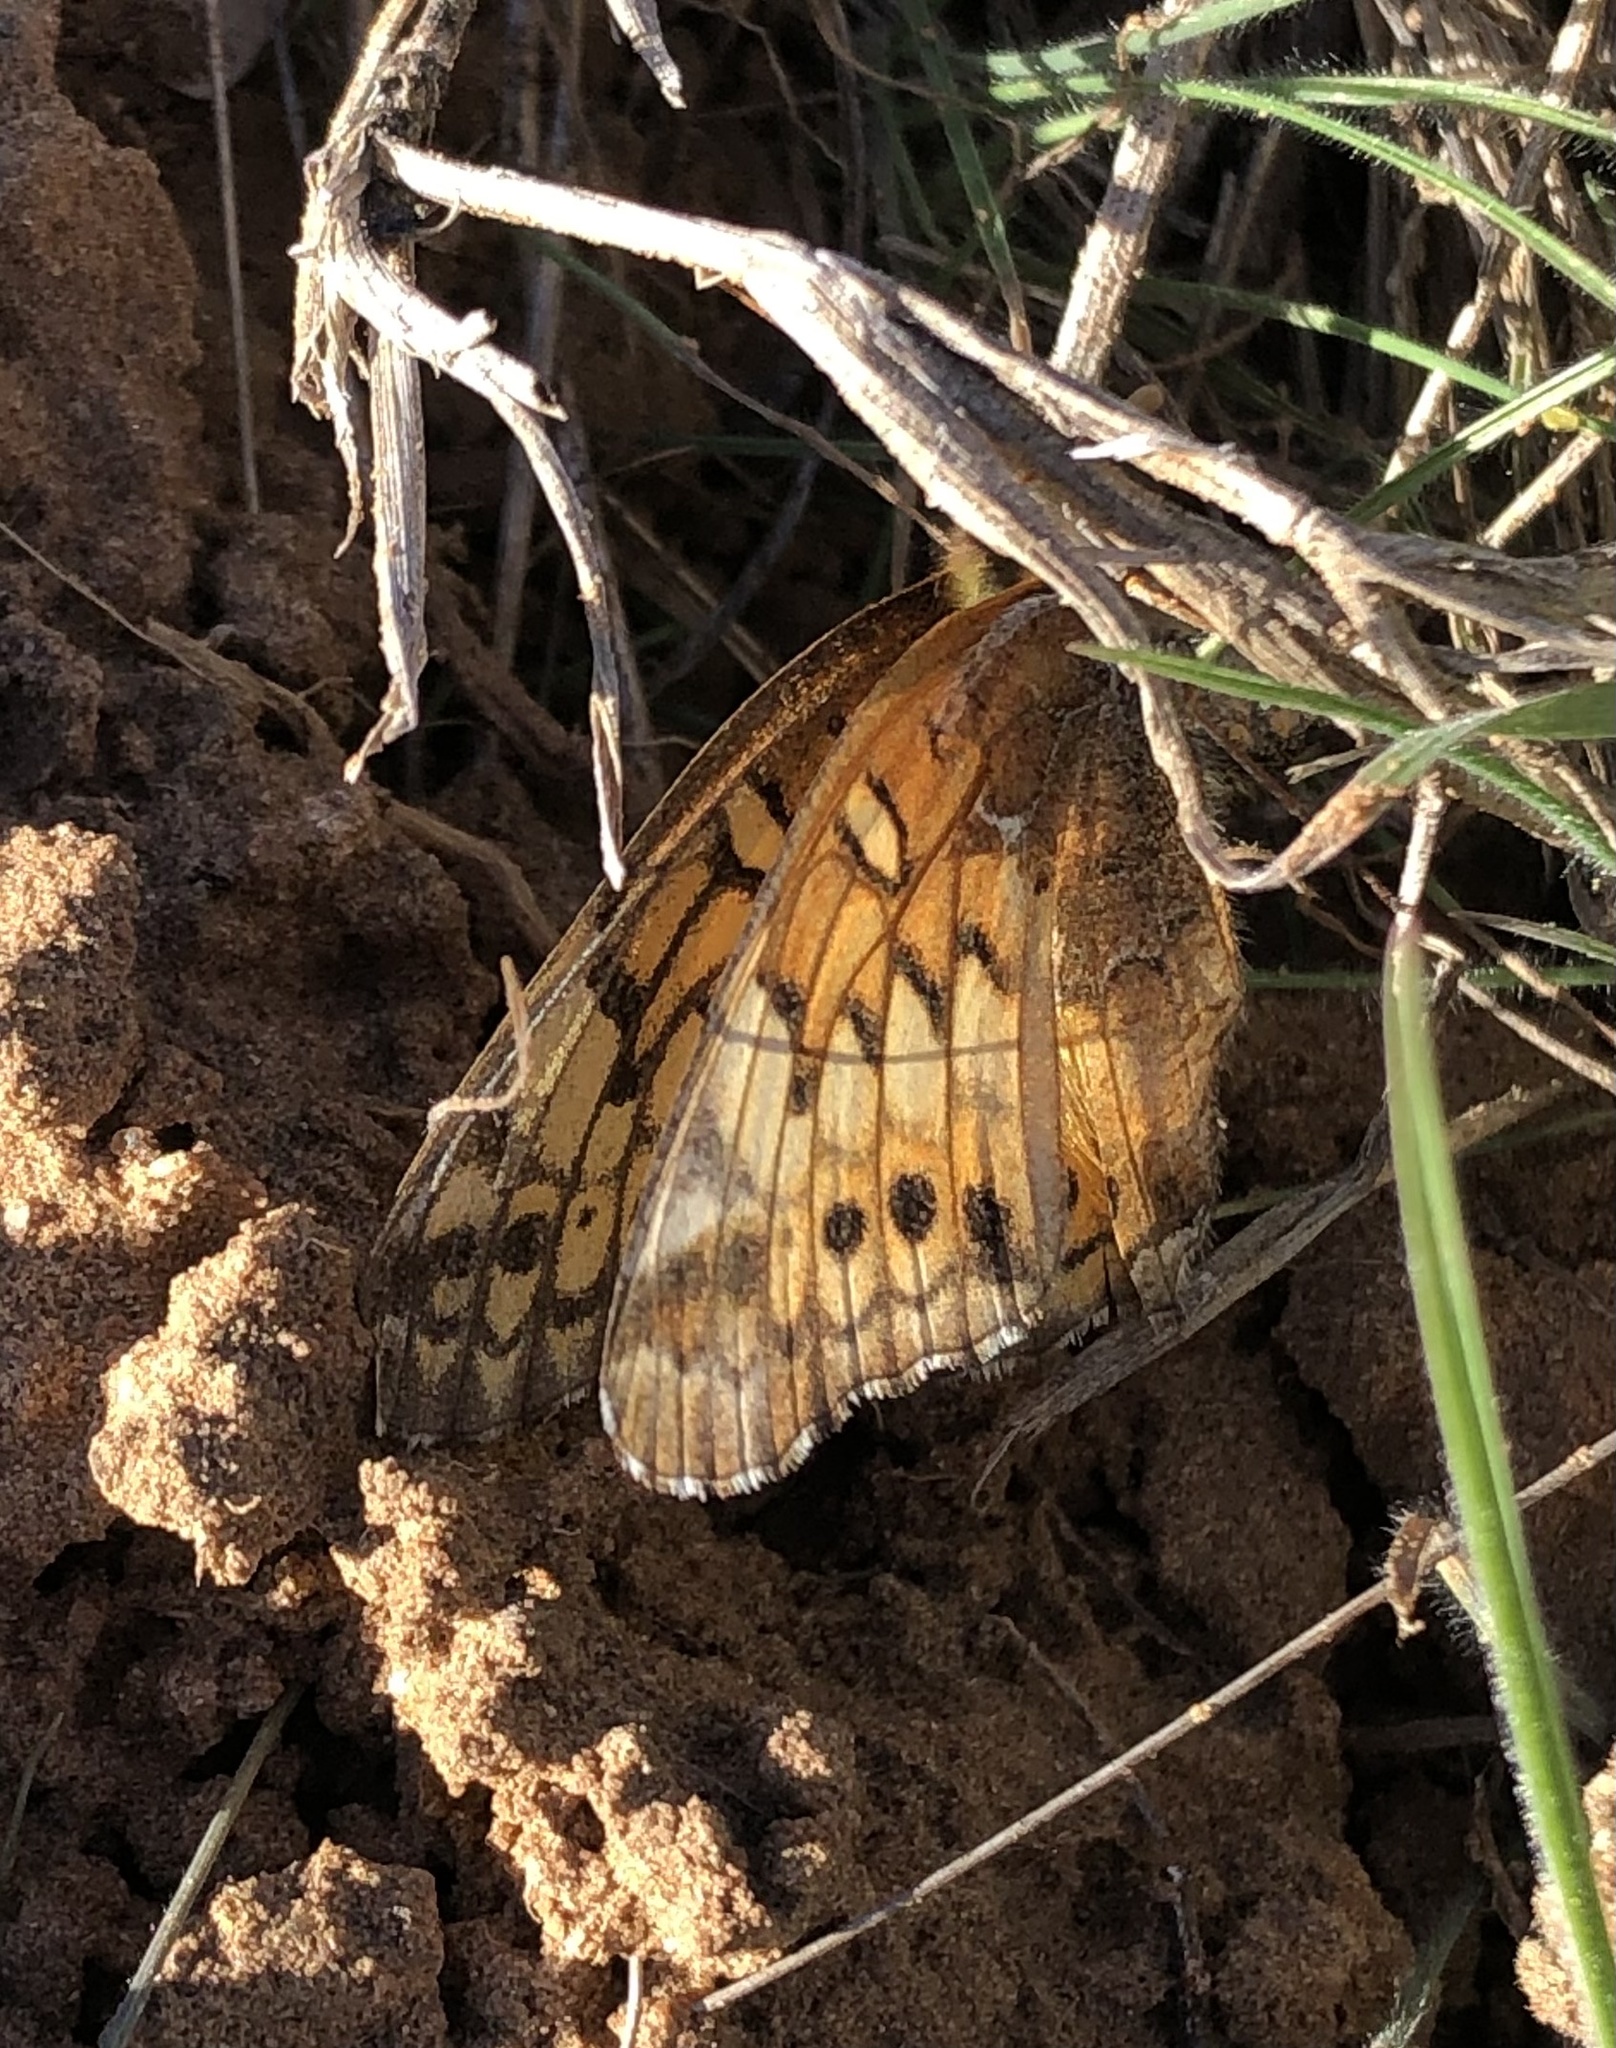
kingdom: Animalia
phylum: Arthropoda
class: Insecta
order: Lepidoptera
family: Nymphalidae
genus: Euptoieta
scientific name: Euptoieta claudia
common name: Variegated fritillary
